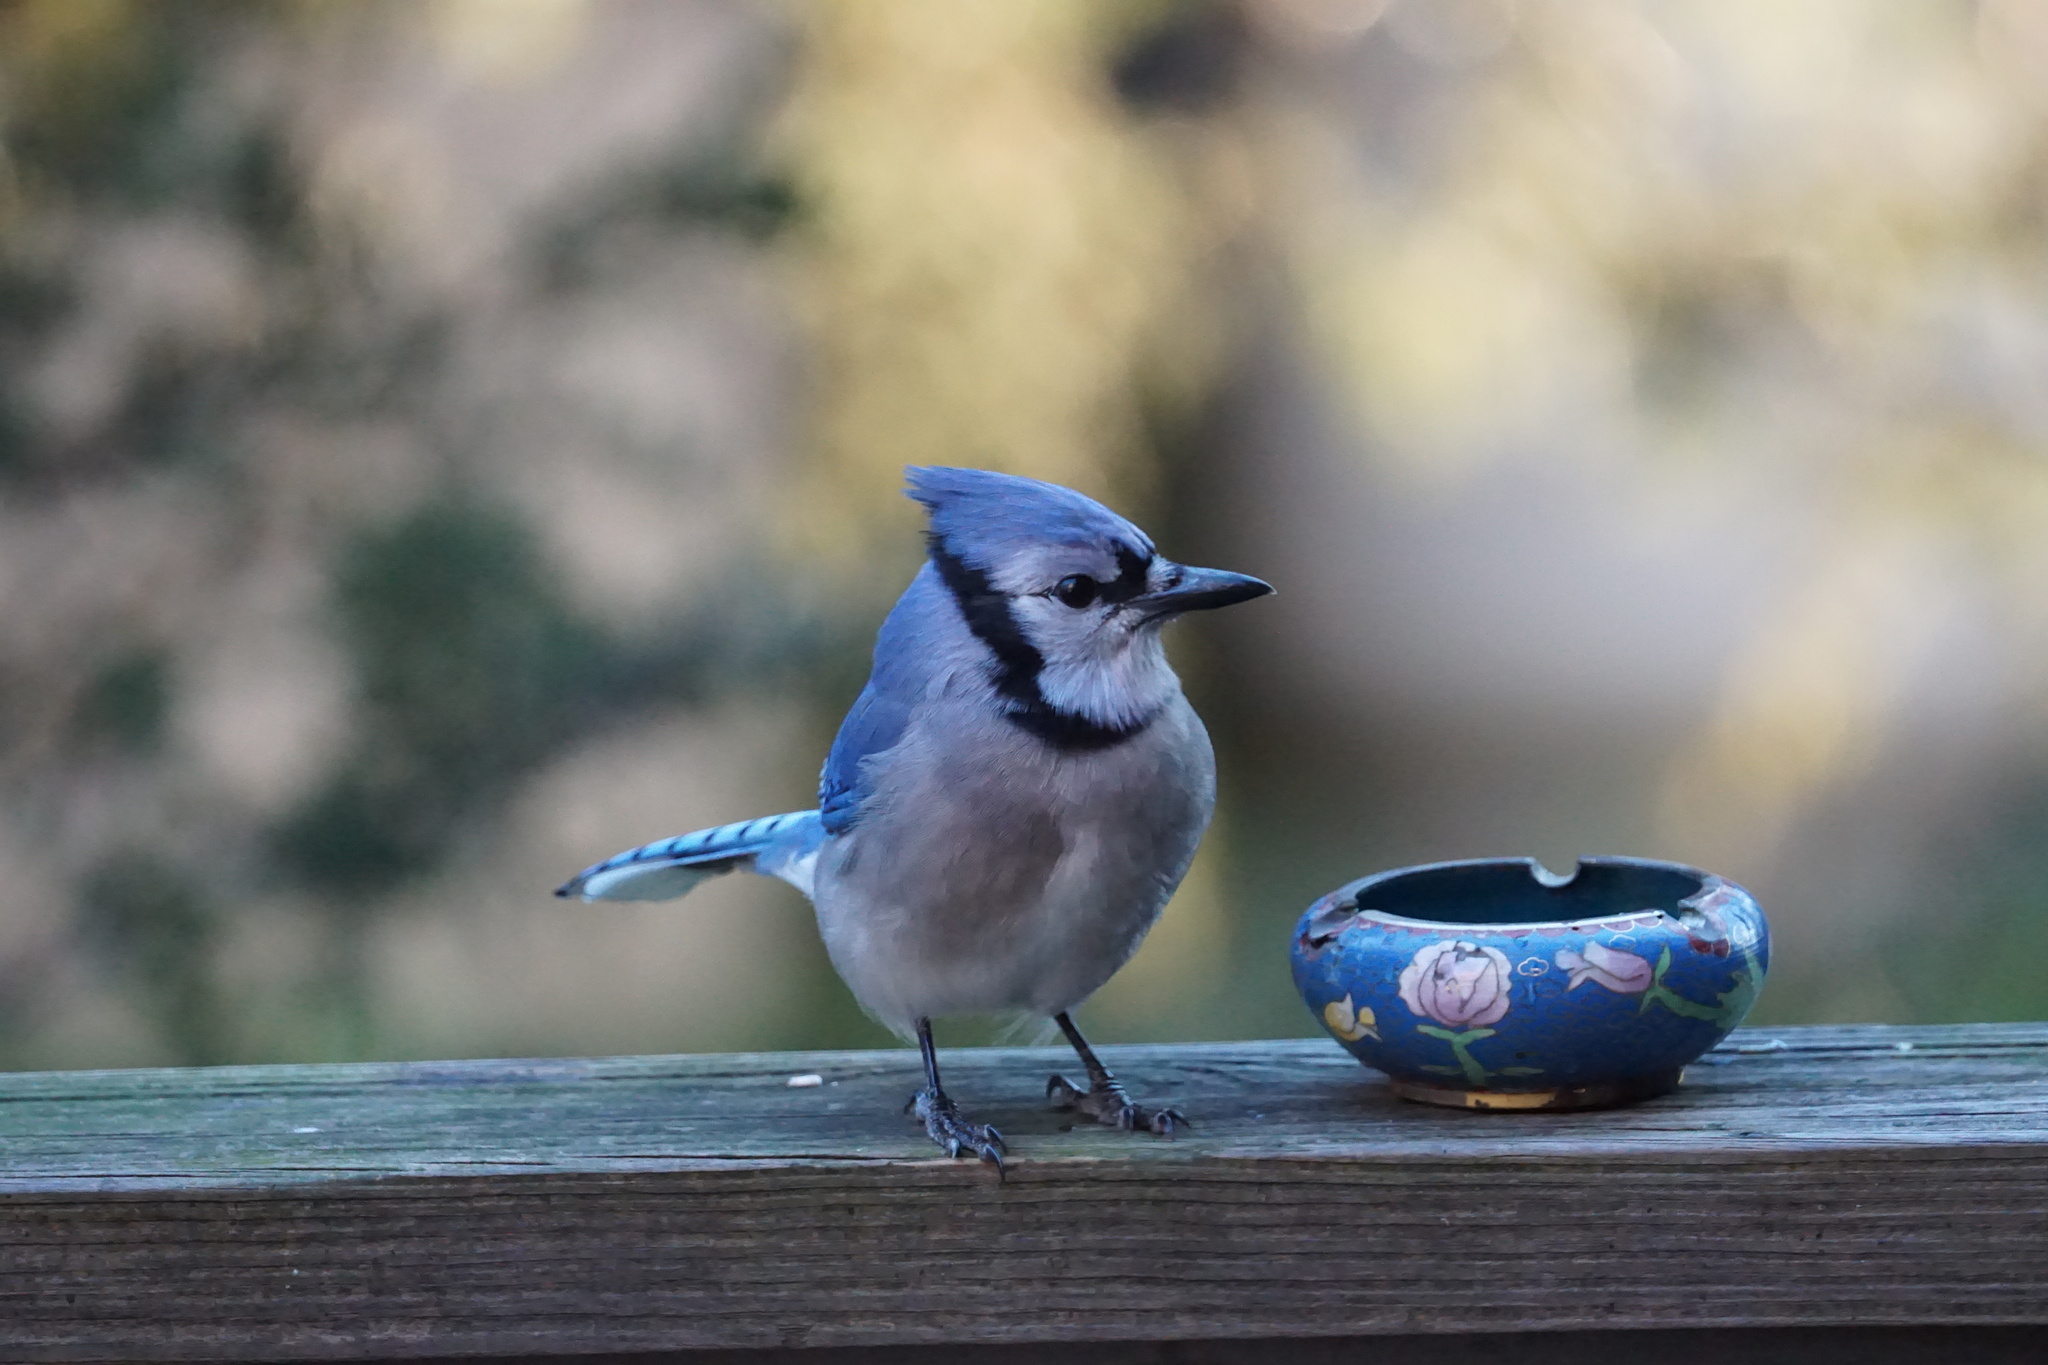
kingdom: Animalia
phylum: Chordata
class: Aves
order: Passeriformes
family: Corvidae
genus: Cyanocitta
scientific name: Cyanocitta cristata
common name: Blue jay
